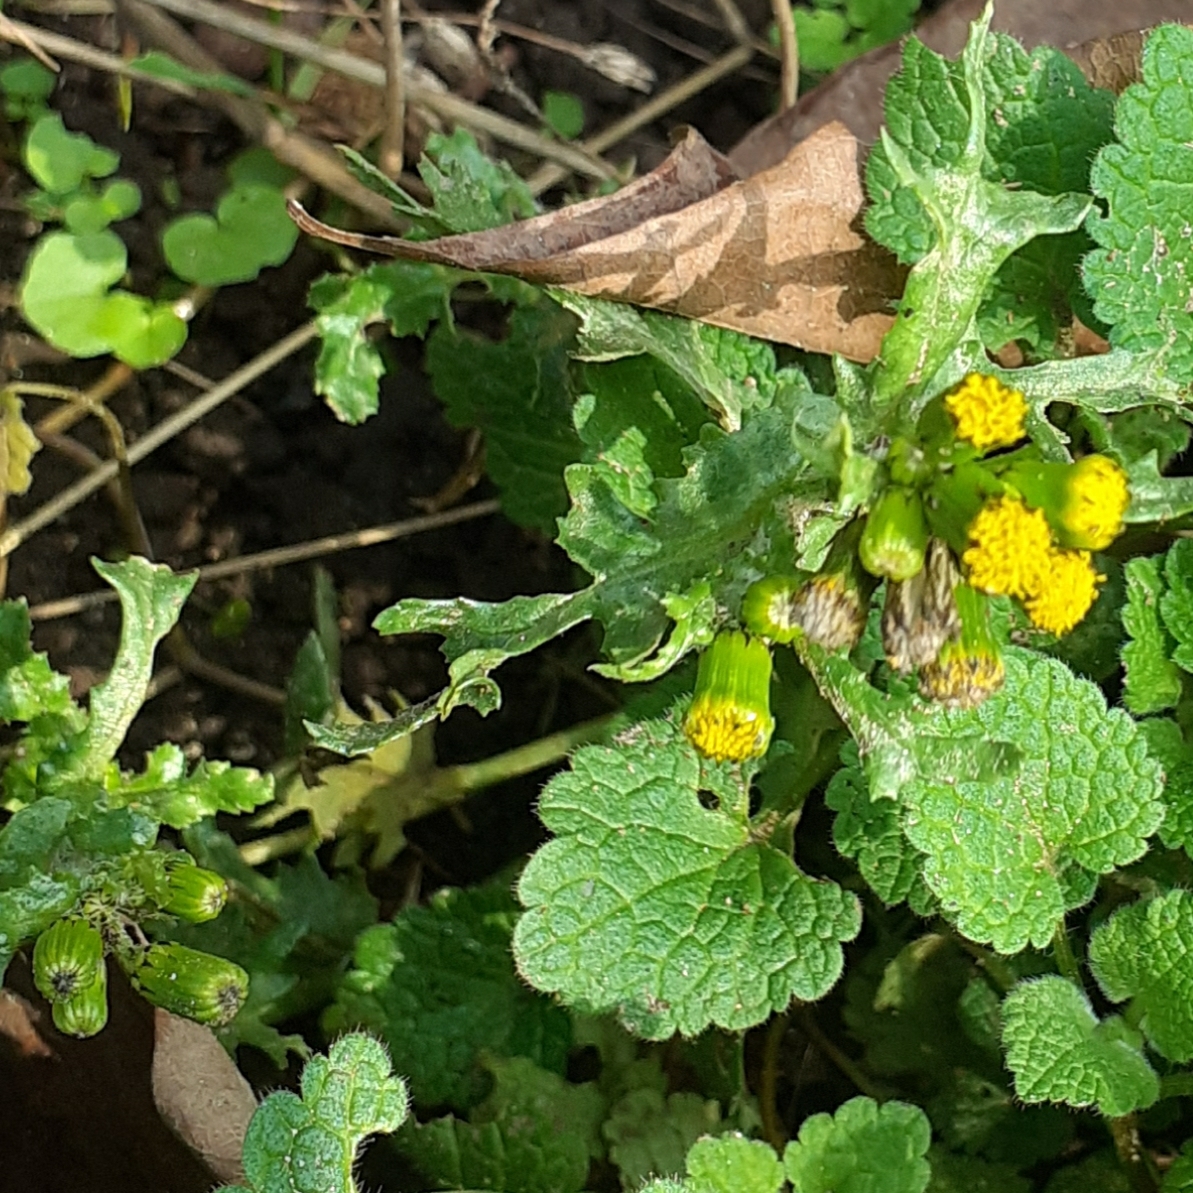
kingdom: Plantae
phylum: Tracheophyta
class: Magnoliopsida
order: Asterales
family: Asteraceae
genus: Senecio
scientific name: Senecio vulgaris
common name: Old-man-in-the-spring
